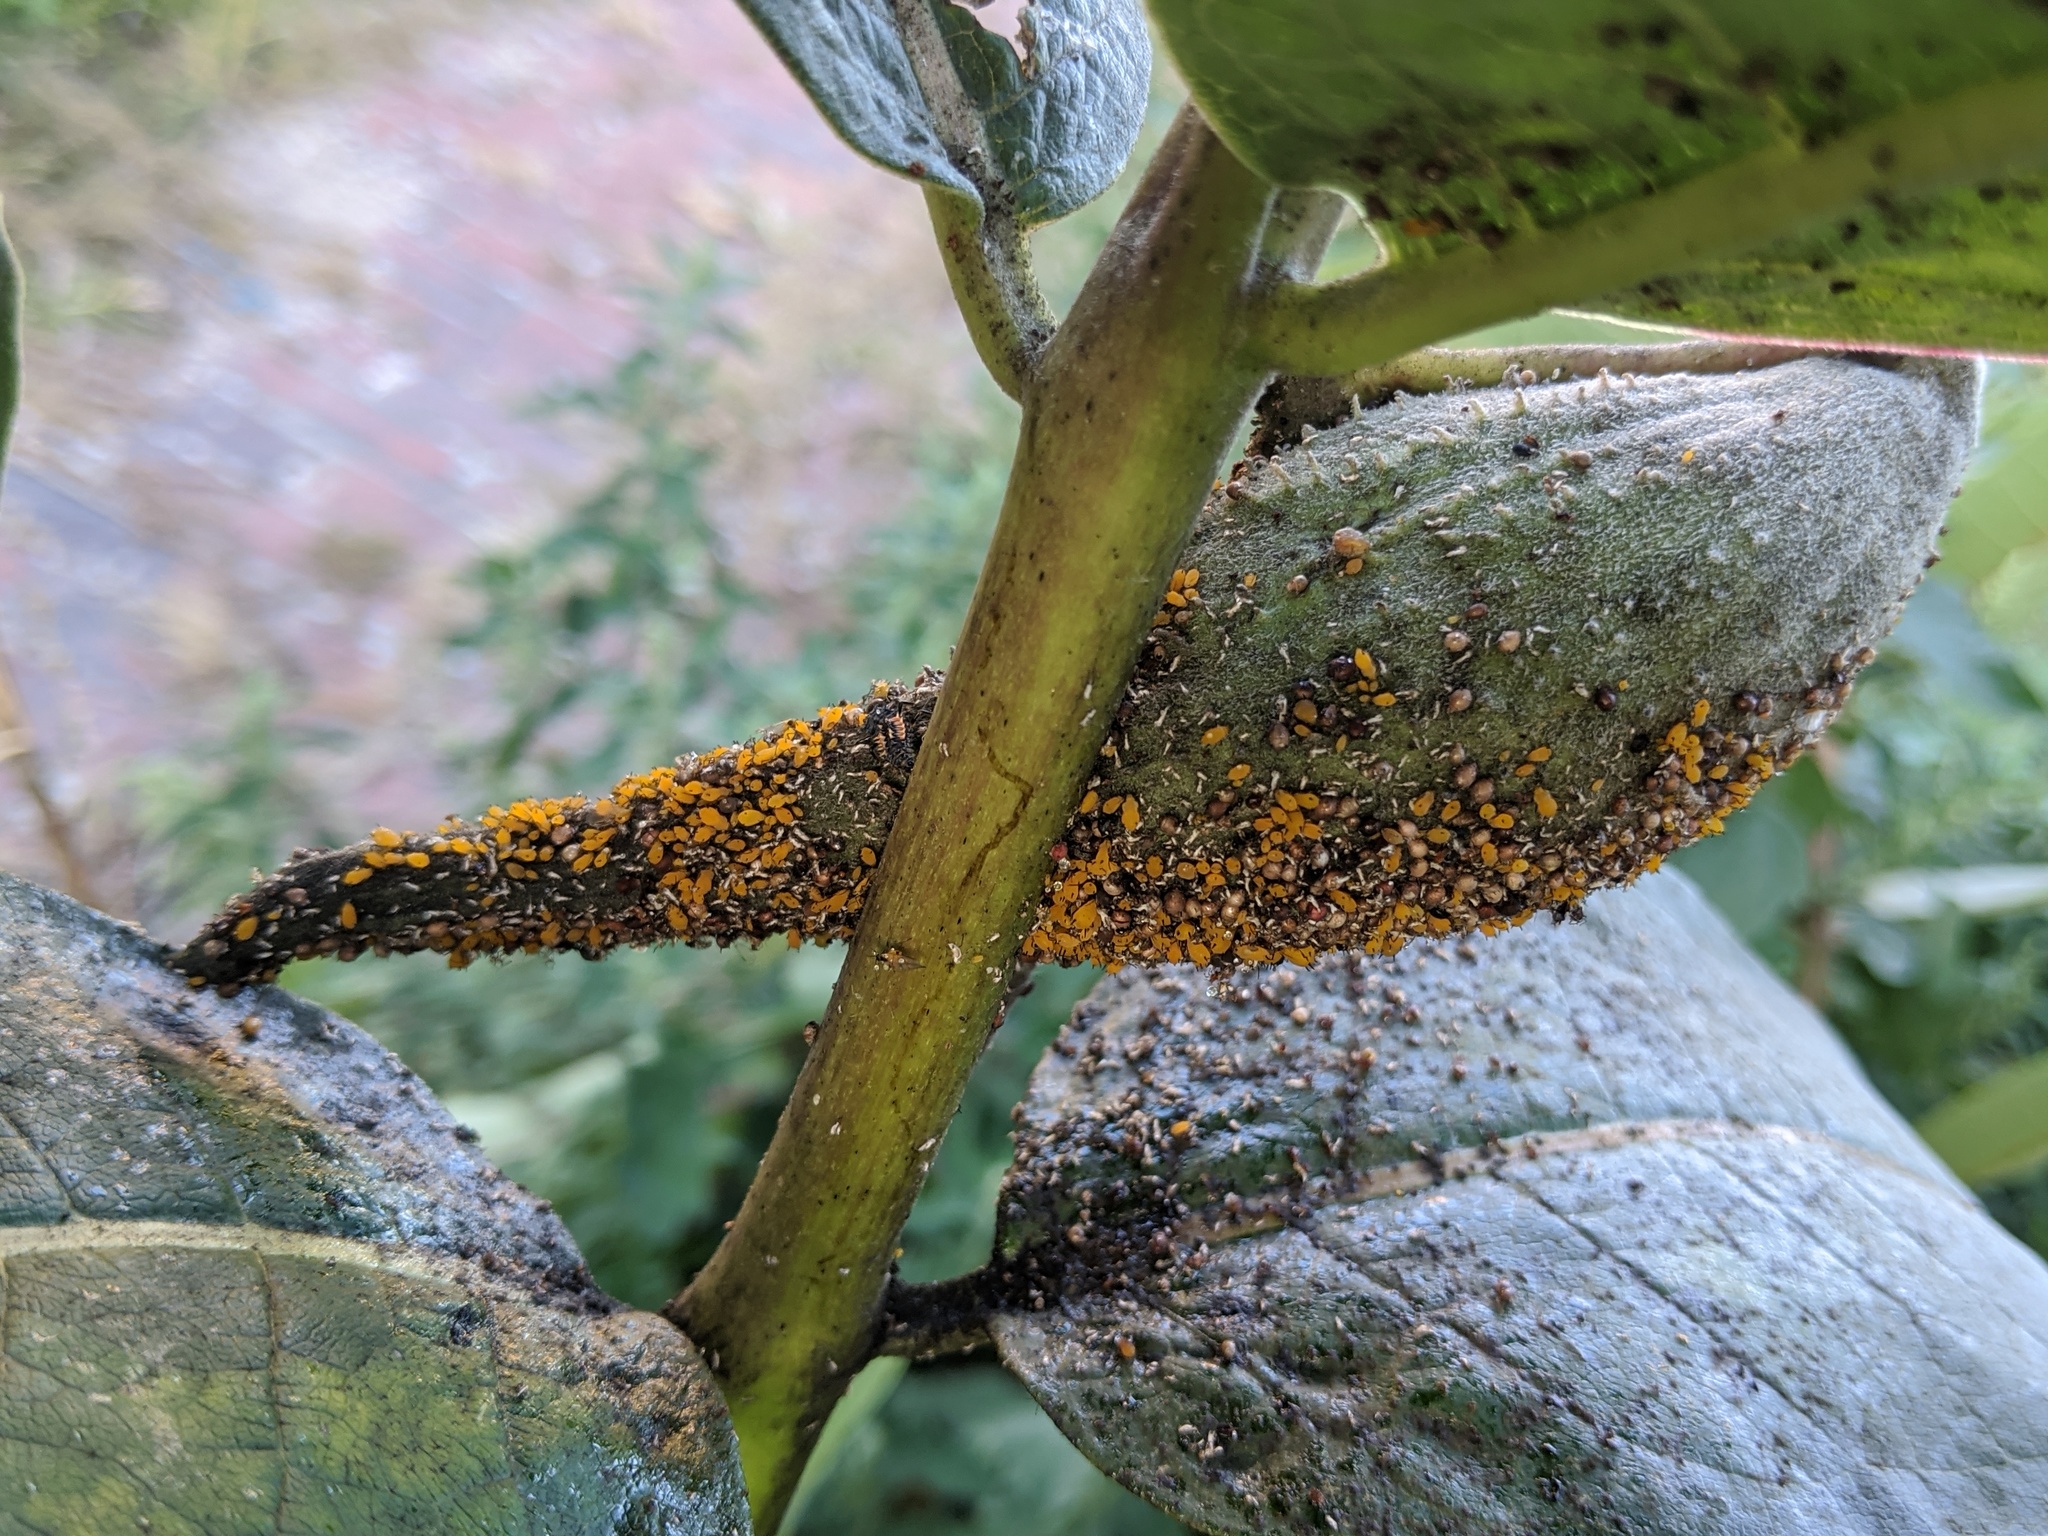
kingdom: Animalia
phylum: Arthropoda
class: Insecta
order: Hemiptera
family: Aphididae
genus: Aphis
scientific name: Aphis nerii
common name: Oleander aphid
